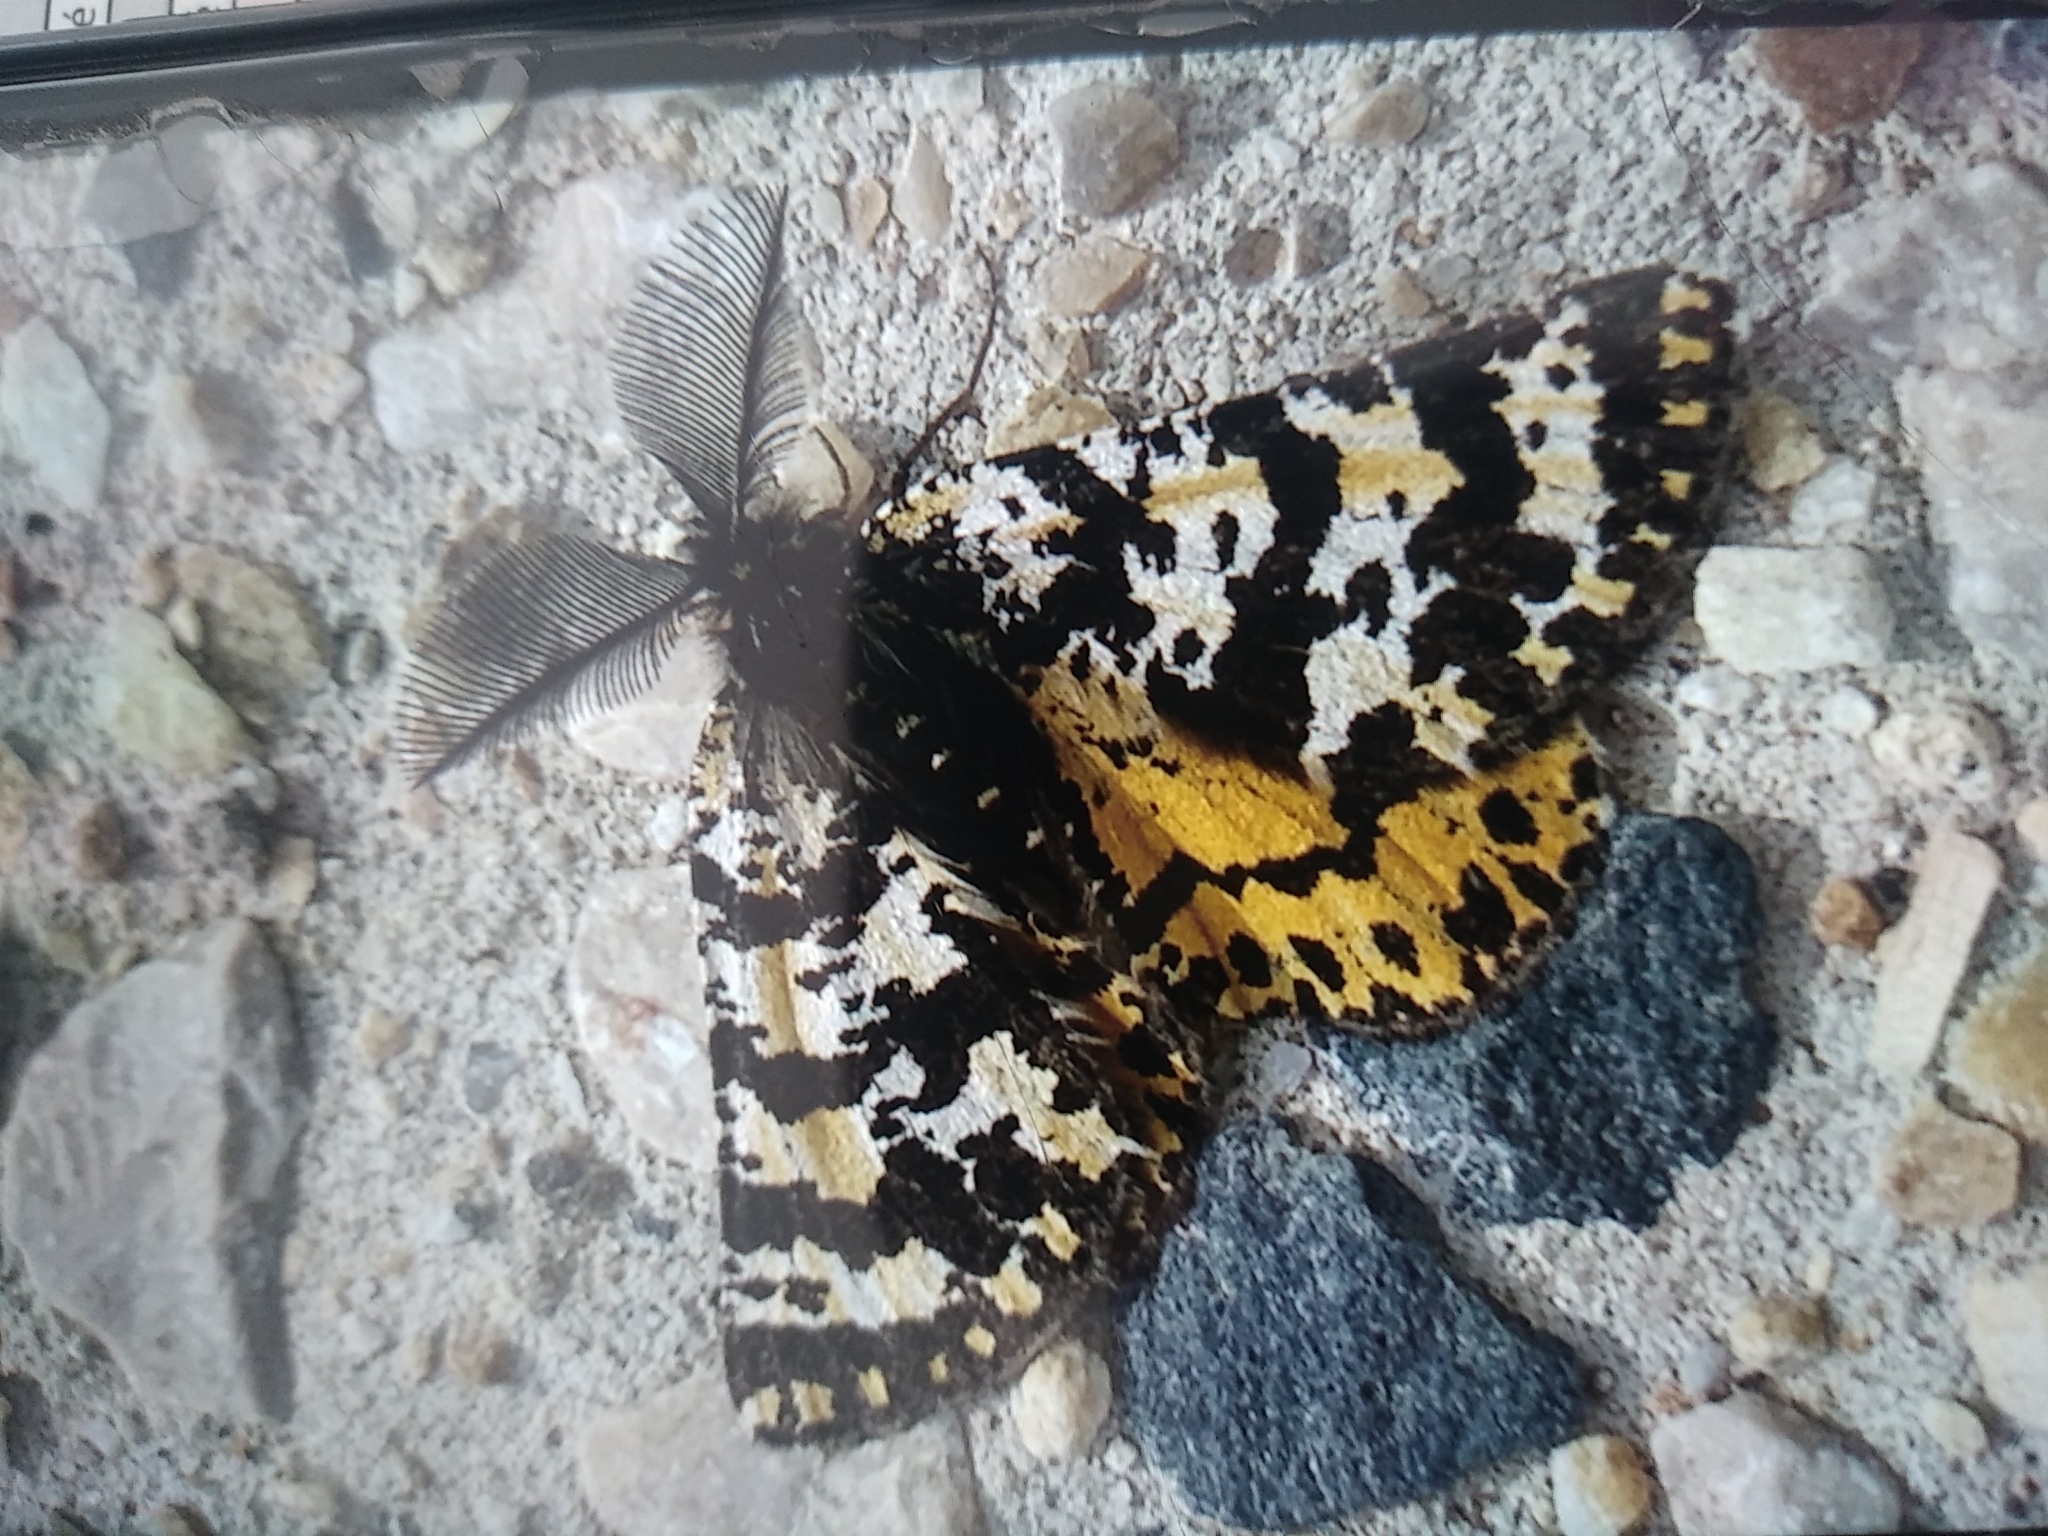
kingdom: Animalia
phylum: Arthropoda
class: Insecta
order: Lepidoptera
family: Geometridae
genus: Eurranthis
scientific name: Eurranthis plummistaria
